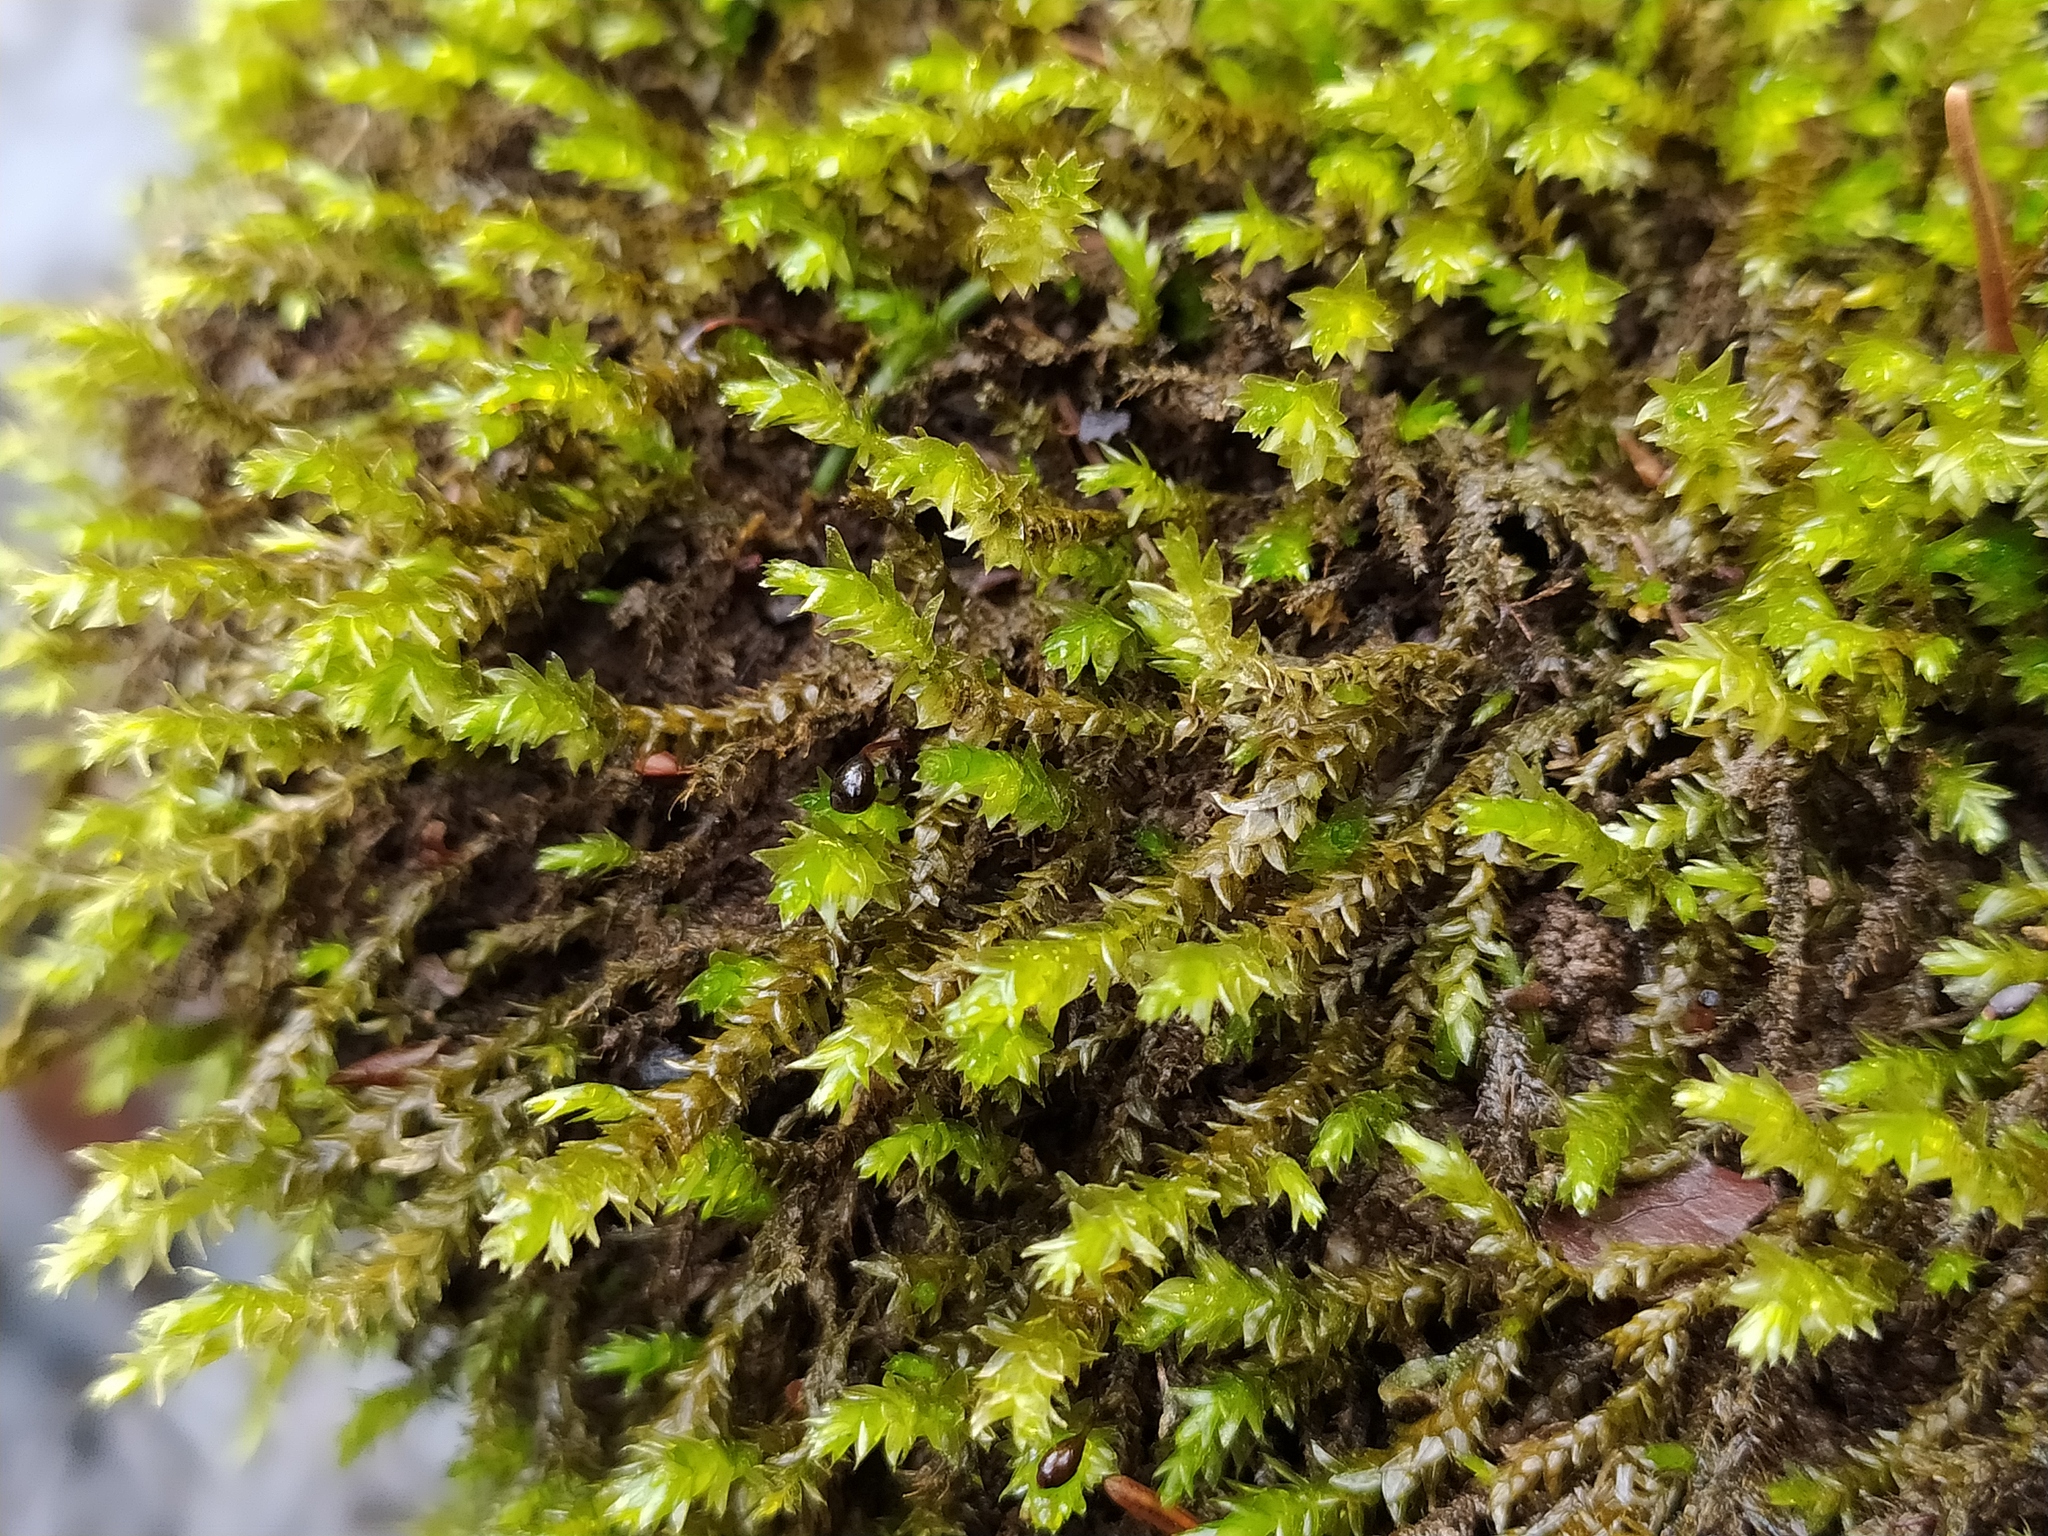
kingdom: Plantae
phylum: Bryophyta
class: Bryopsida
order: Hypnales
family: Brachytheciaceae
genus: Rhynchostegium
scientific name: Rhynchostegium riparioides
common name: Platyhypnidium moss
